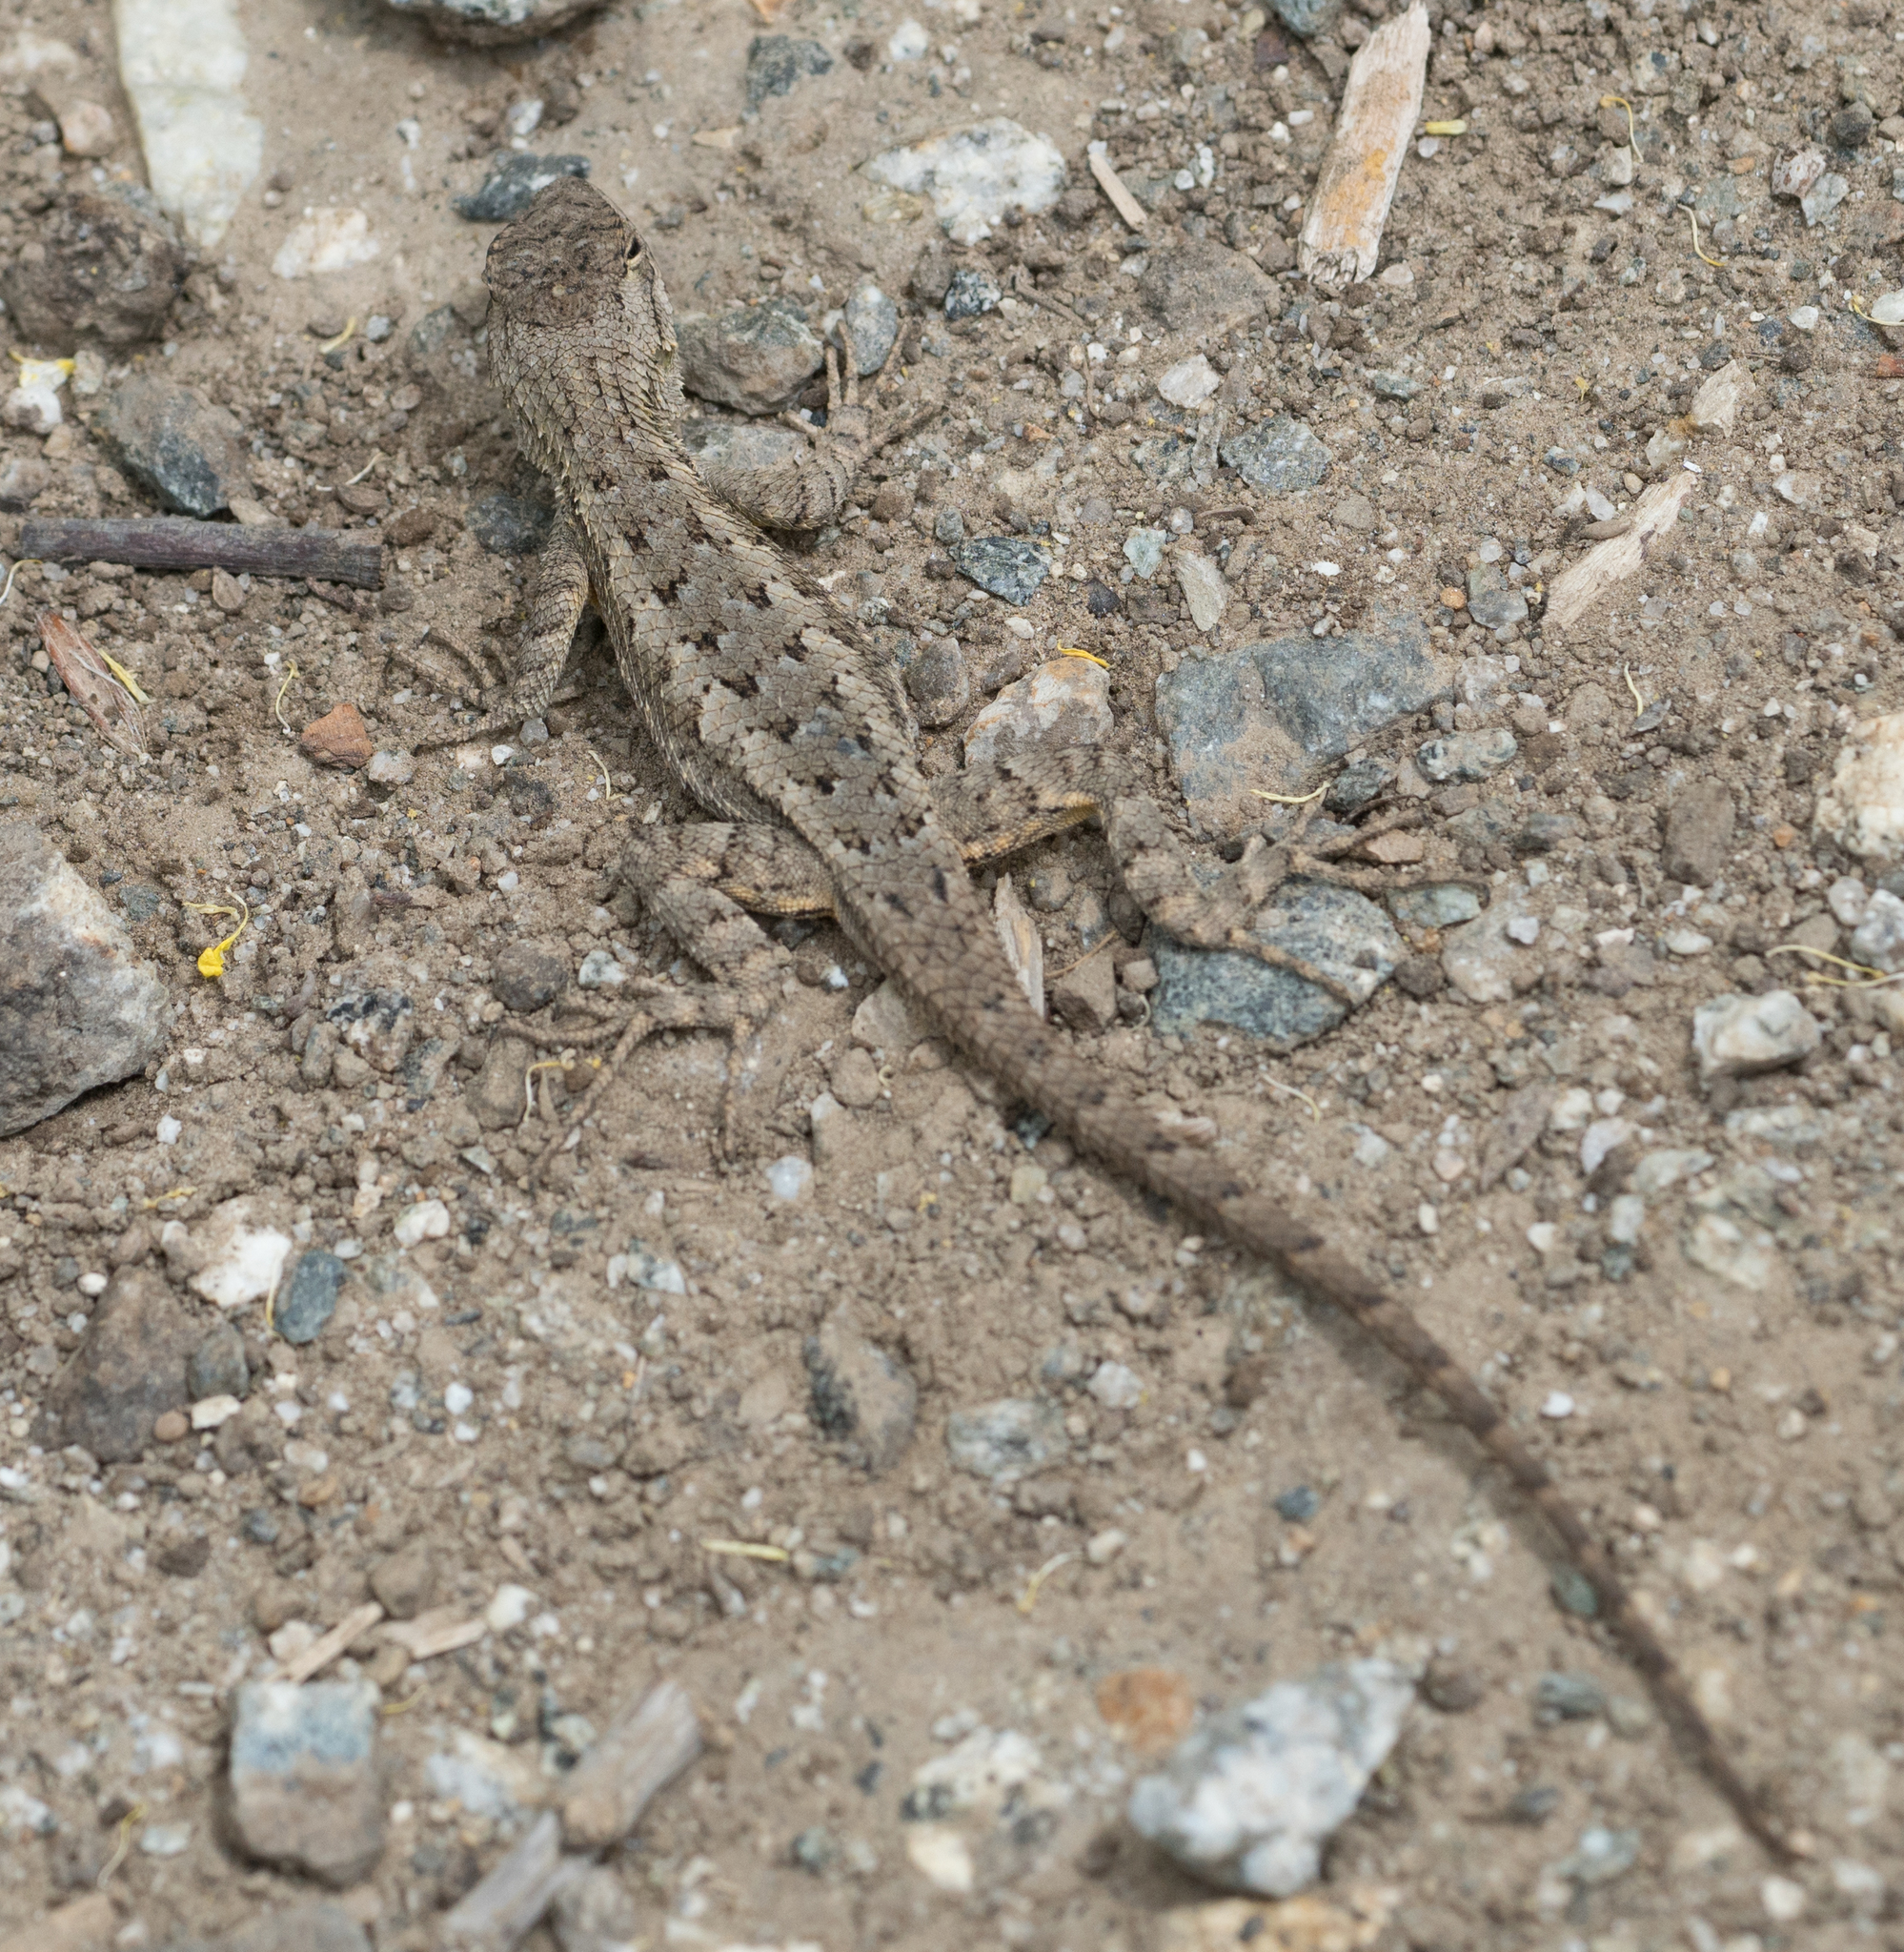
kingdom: Animalia
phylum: Chordata
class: Squamata
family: Phrynosomatidae
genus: Sceloporus
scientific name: Sceloporus occidentalis
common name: Western fence lizard
